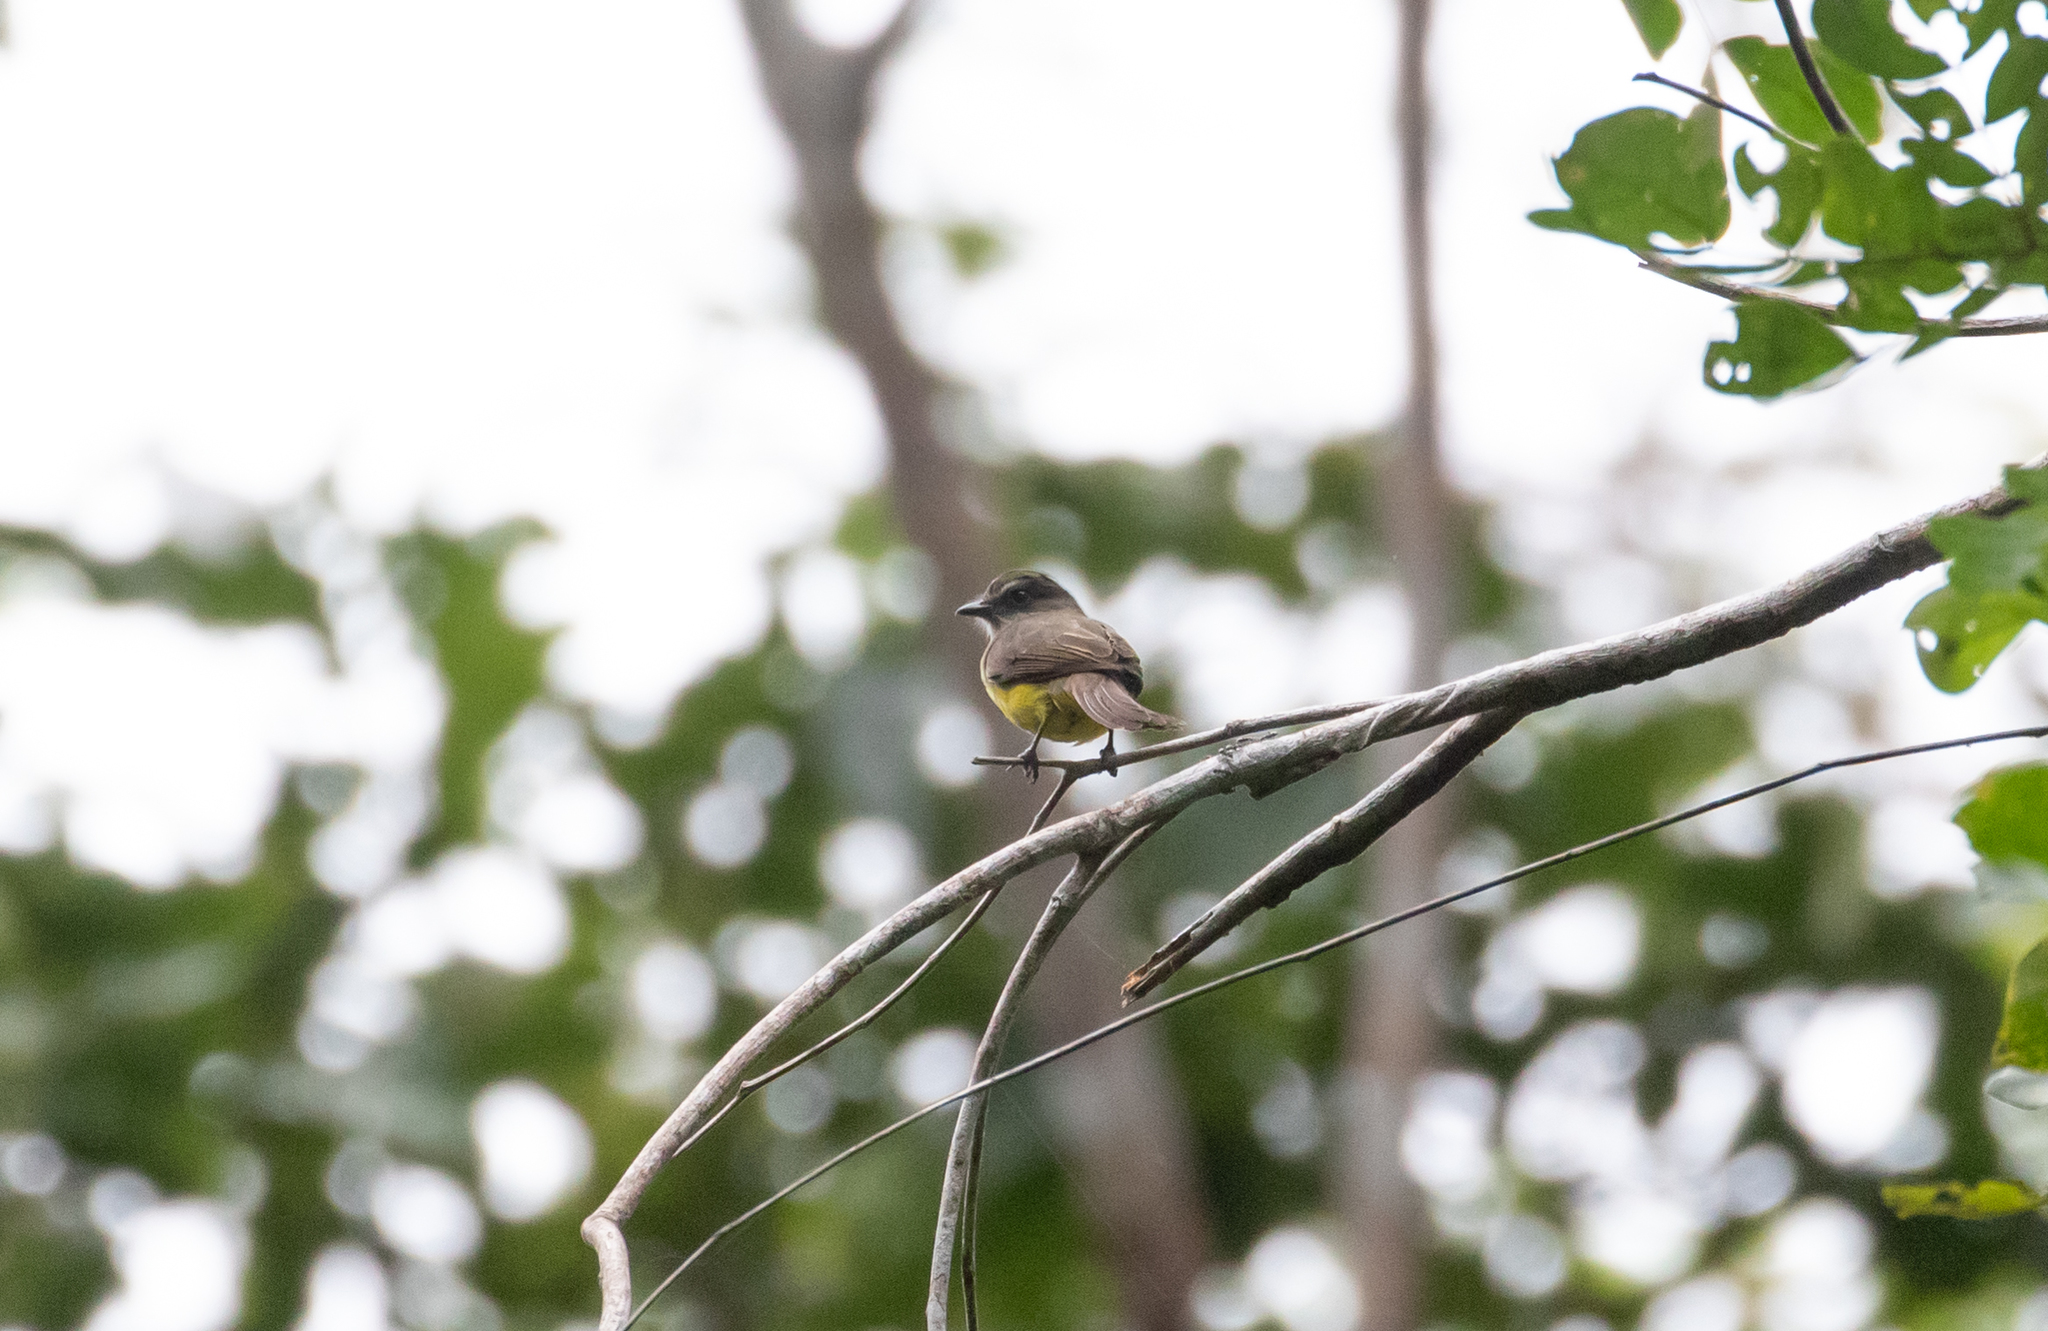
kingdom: Animalia
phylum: Chordata
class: Aves
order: Passeriformes
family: Tyrannidae
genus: Myiozetetes
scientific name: Myiozetetes luteiventris
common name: Dusky-chested flycatcher
